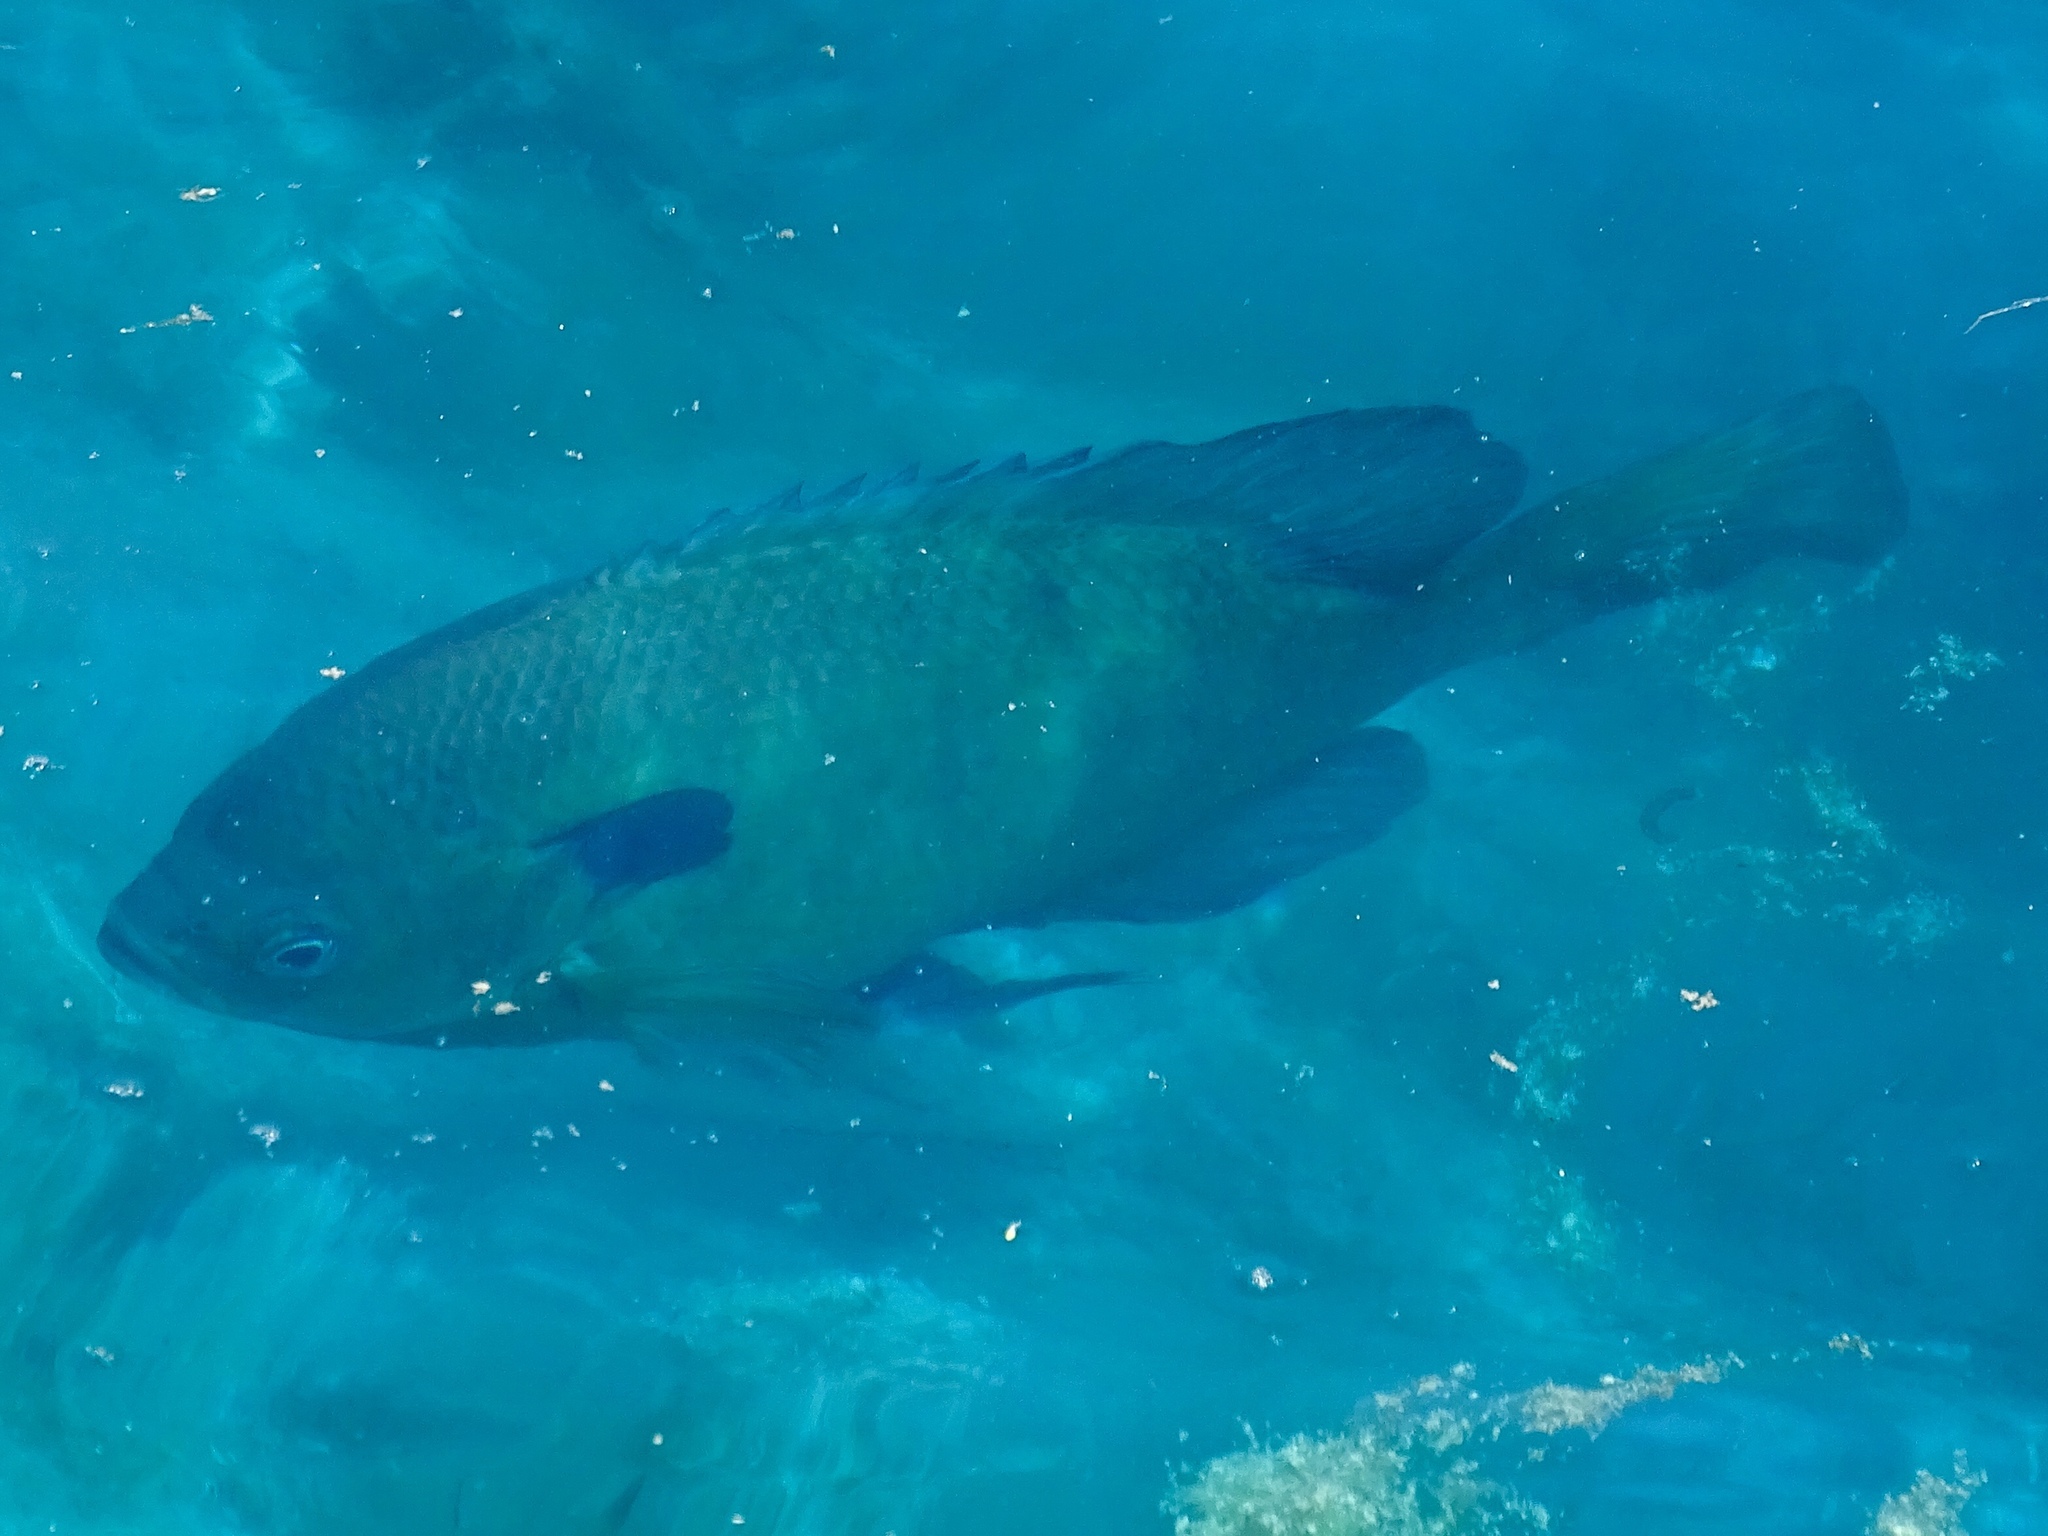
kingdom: Animalia
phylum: Chordata
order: Perciformes
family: Centrarchidae
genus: Lepomis
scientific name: Lepomis macrochirus
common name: Bluegill
